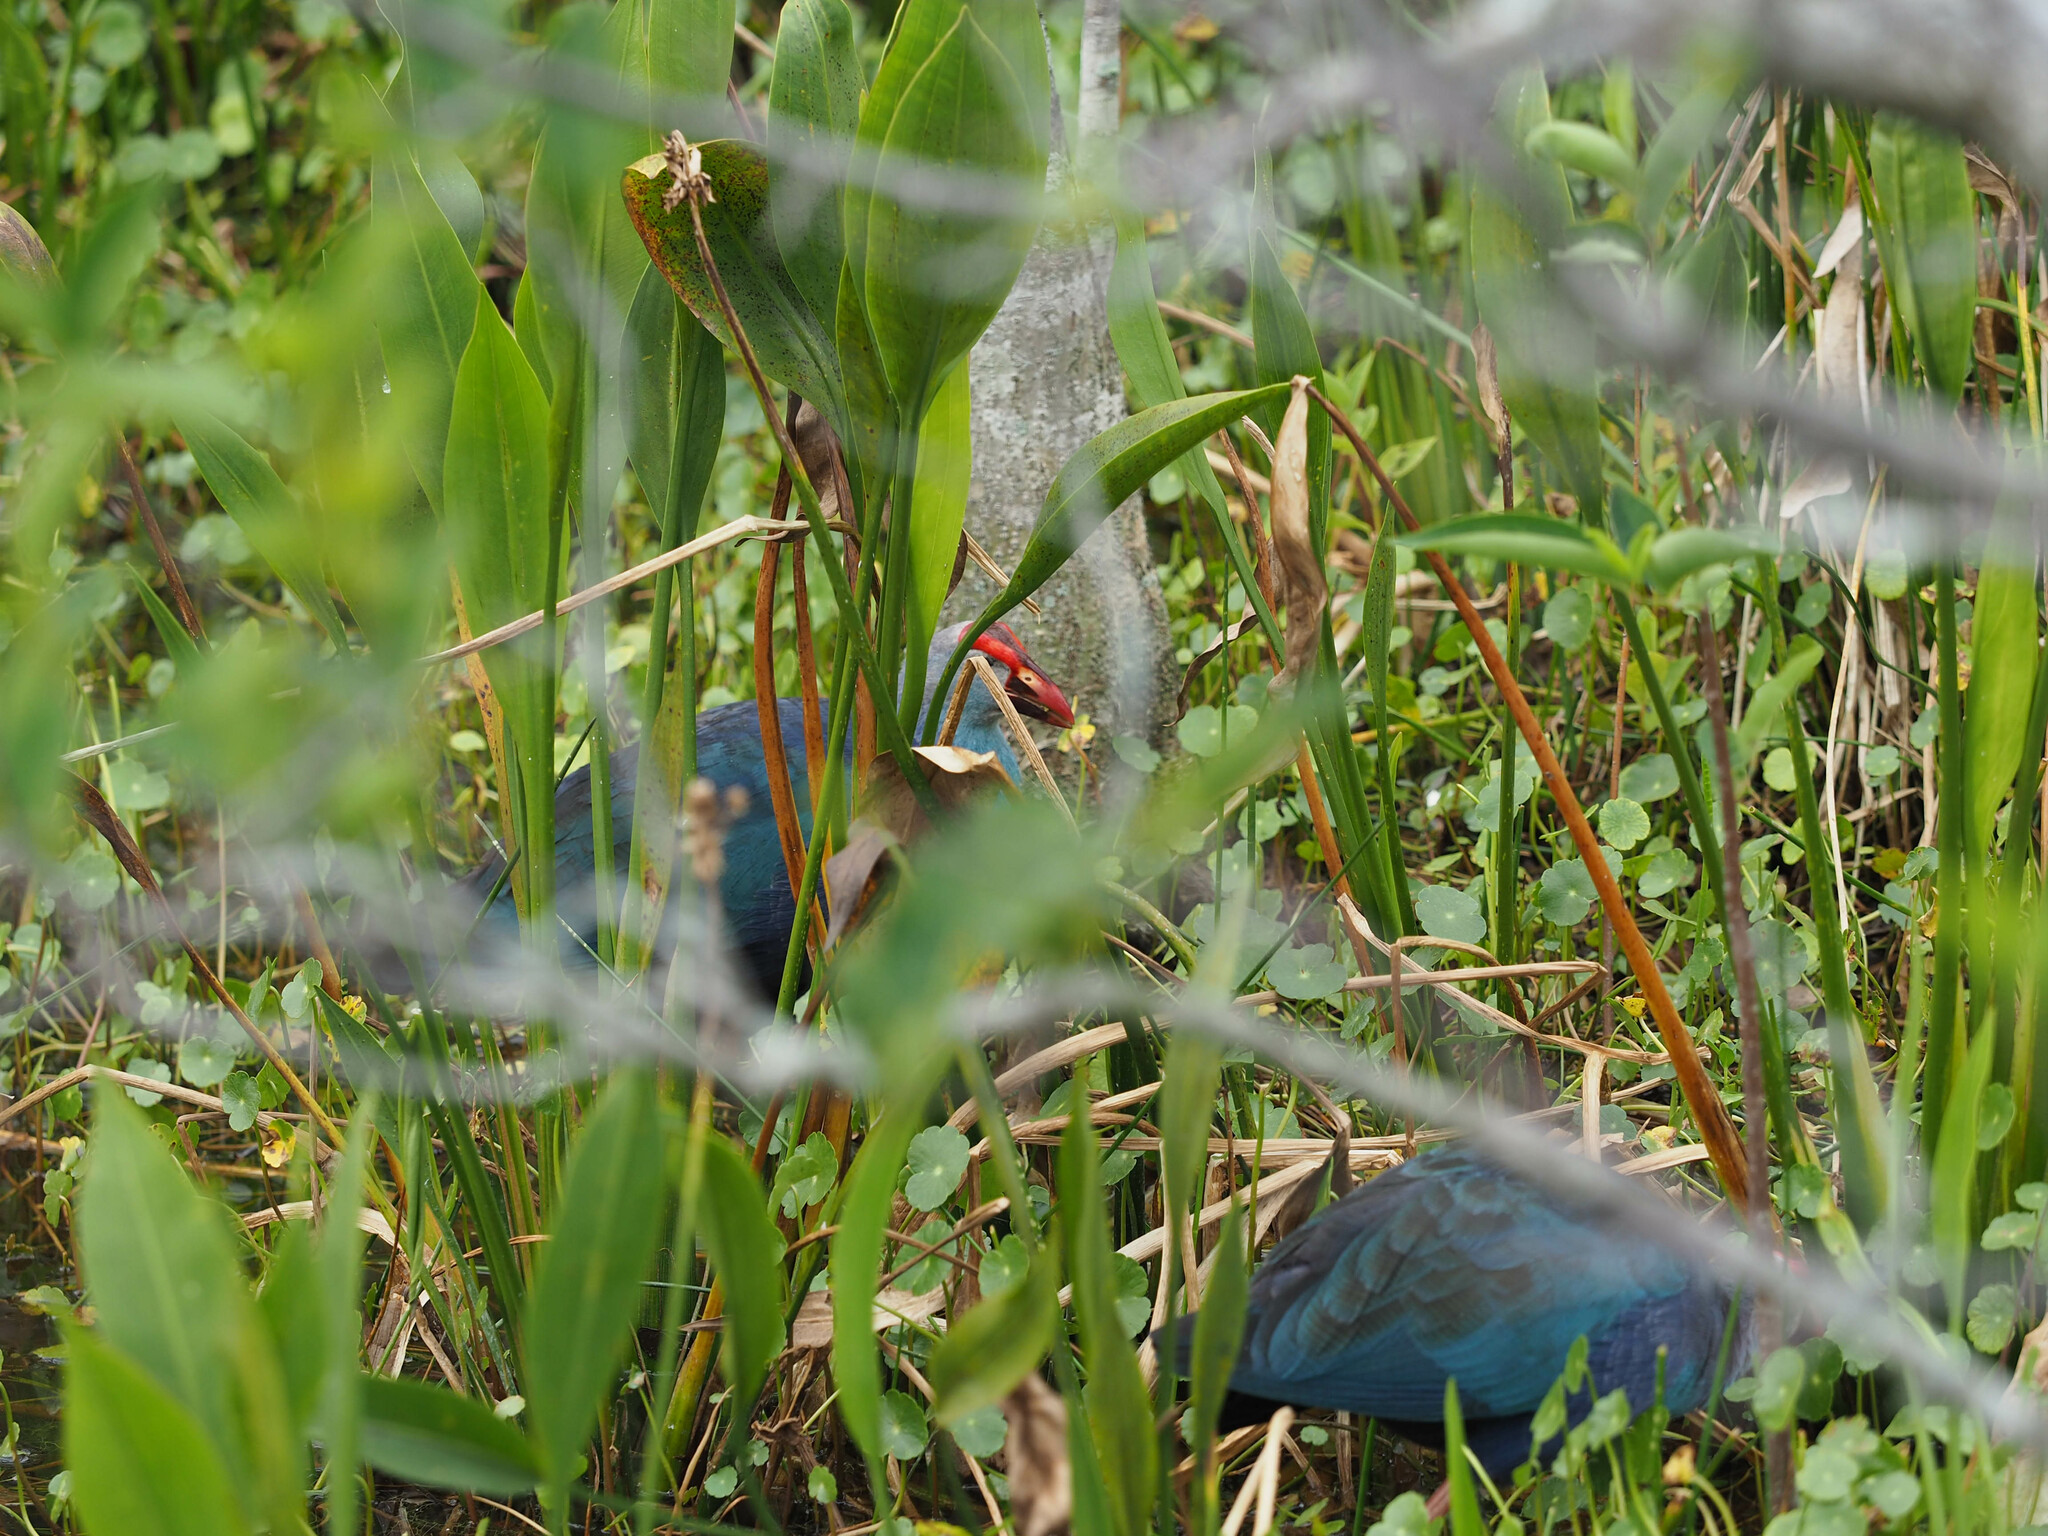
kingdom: Animalia
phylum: Chordata
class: Aves
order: Gruiformes
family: Rallidae
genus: Porphyrio
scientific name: Porphyrio porphyrio
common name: Purple swamphen
